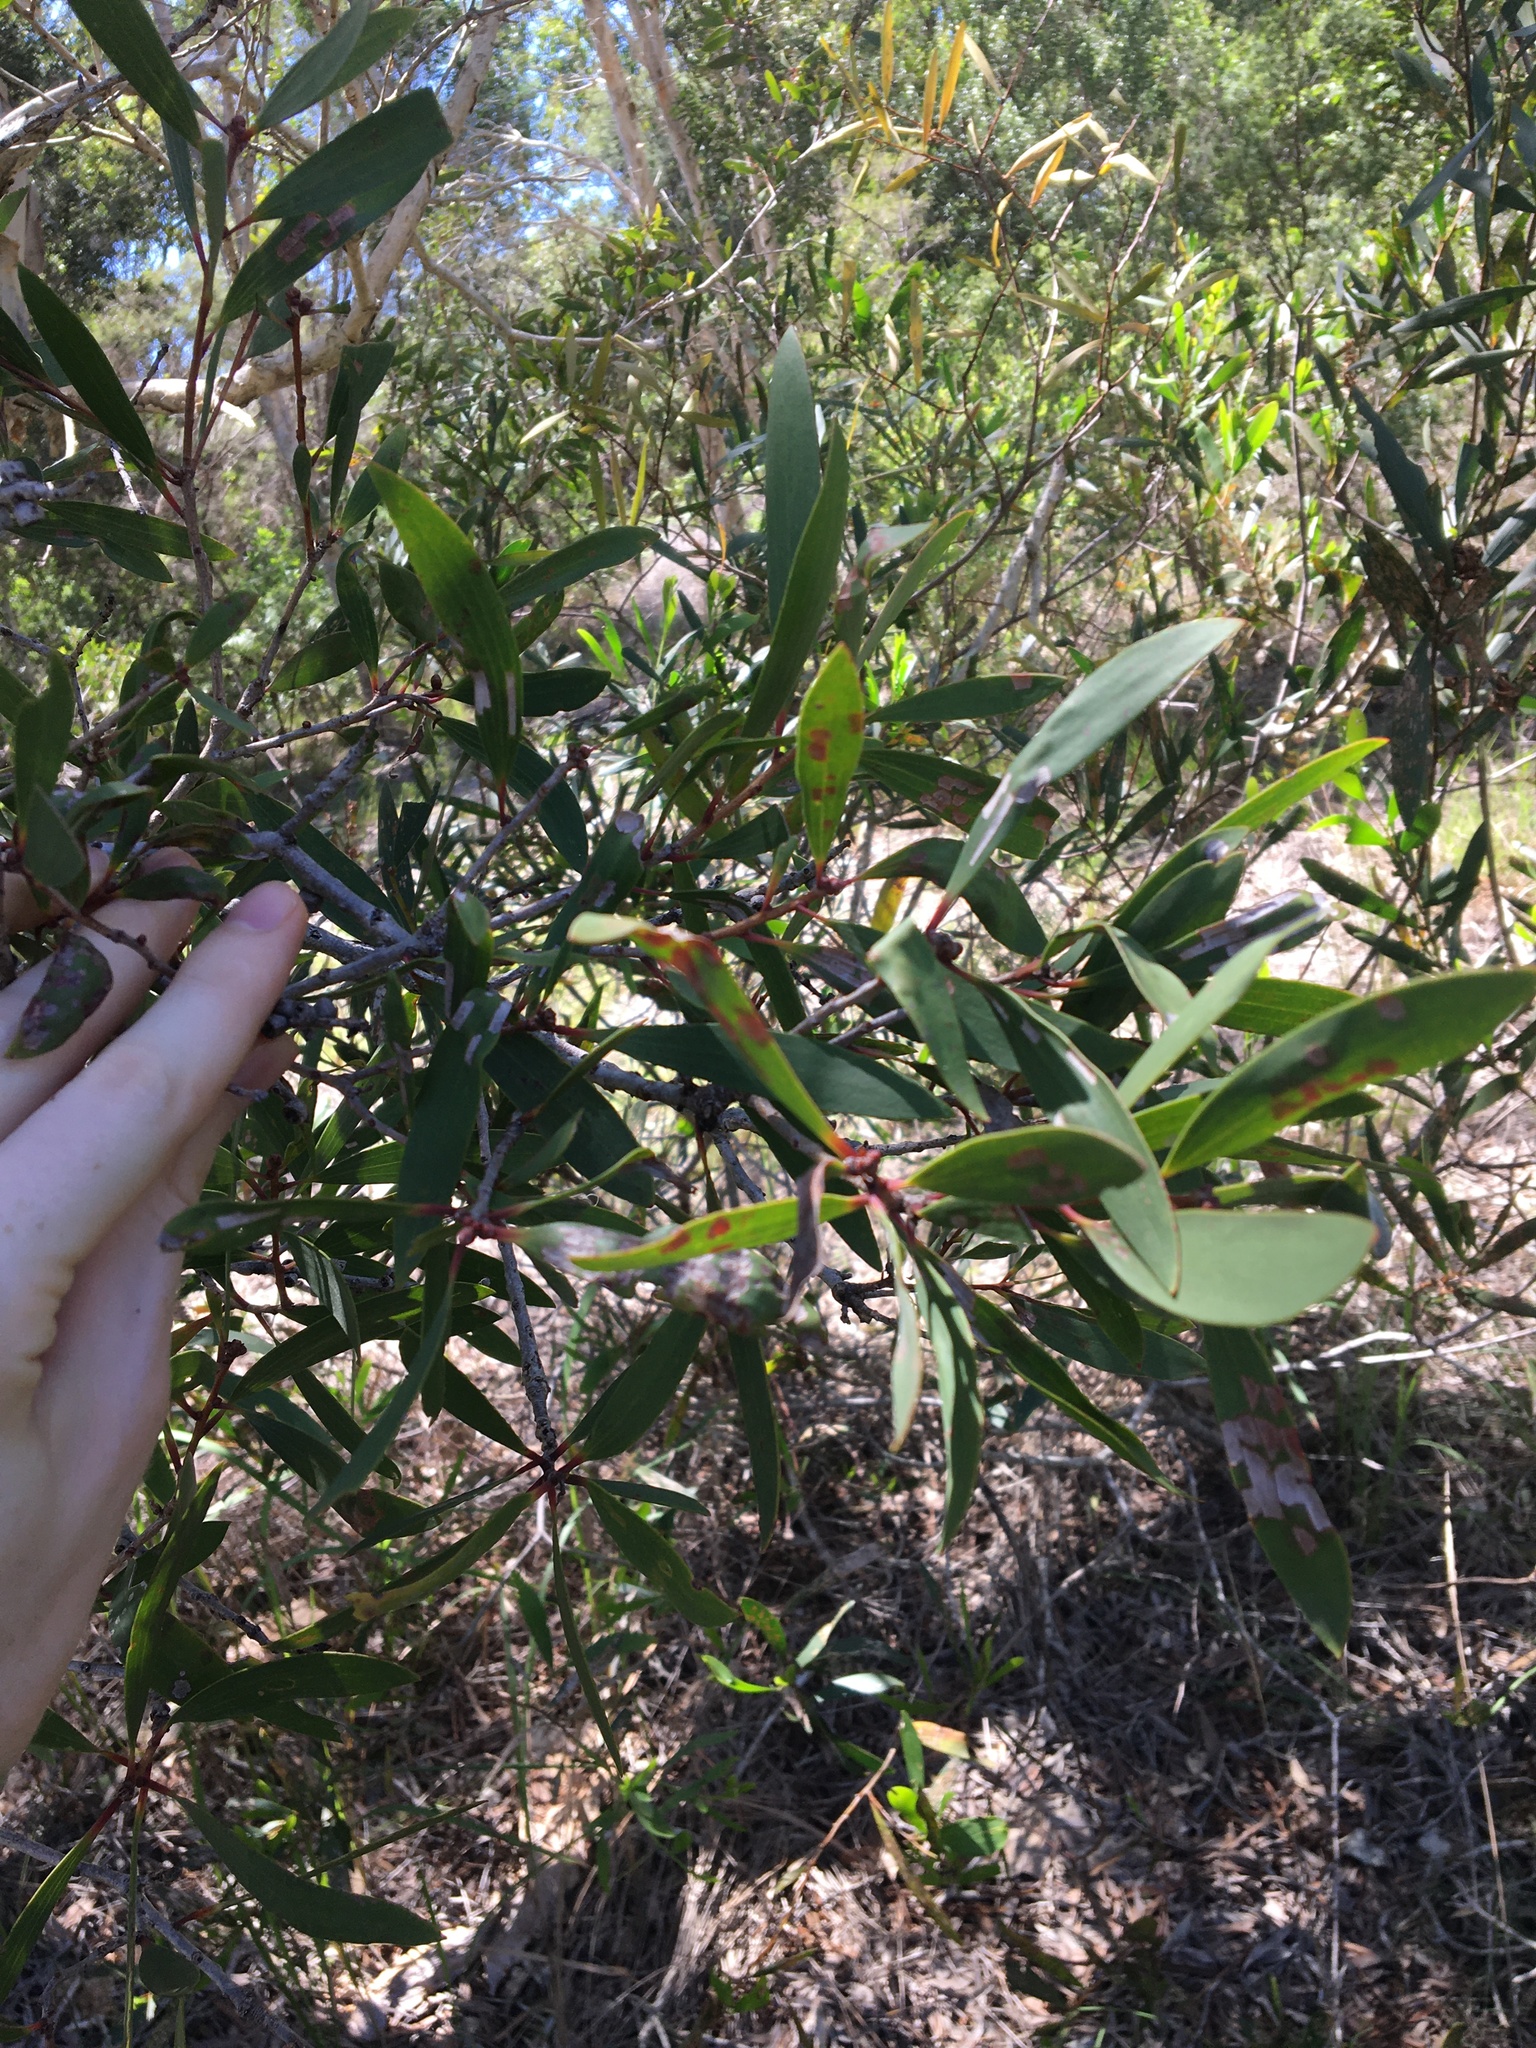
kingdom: Plantae
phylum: Tracheophyta
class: Magnoliopsida
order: Myrtales
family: Myrtaceae
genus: Melaleuca
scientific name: Melaleuca quinquenervia
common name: Punktree
